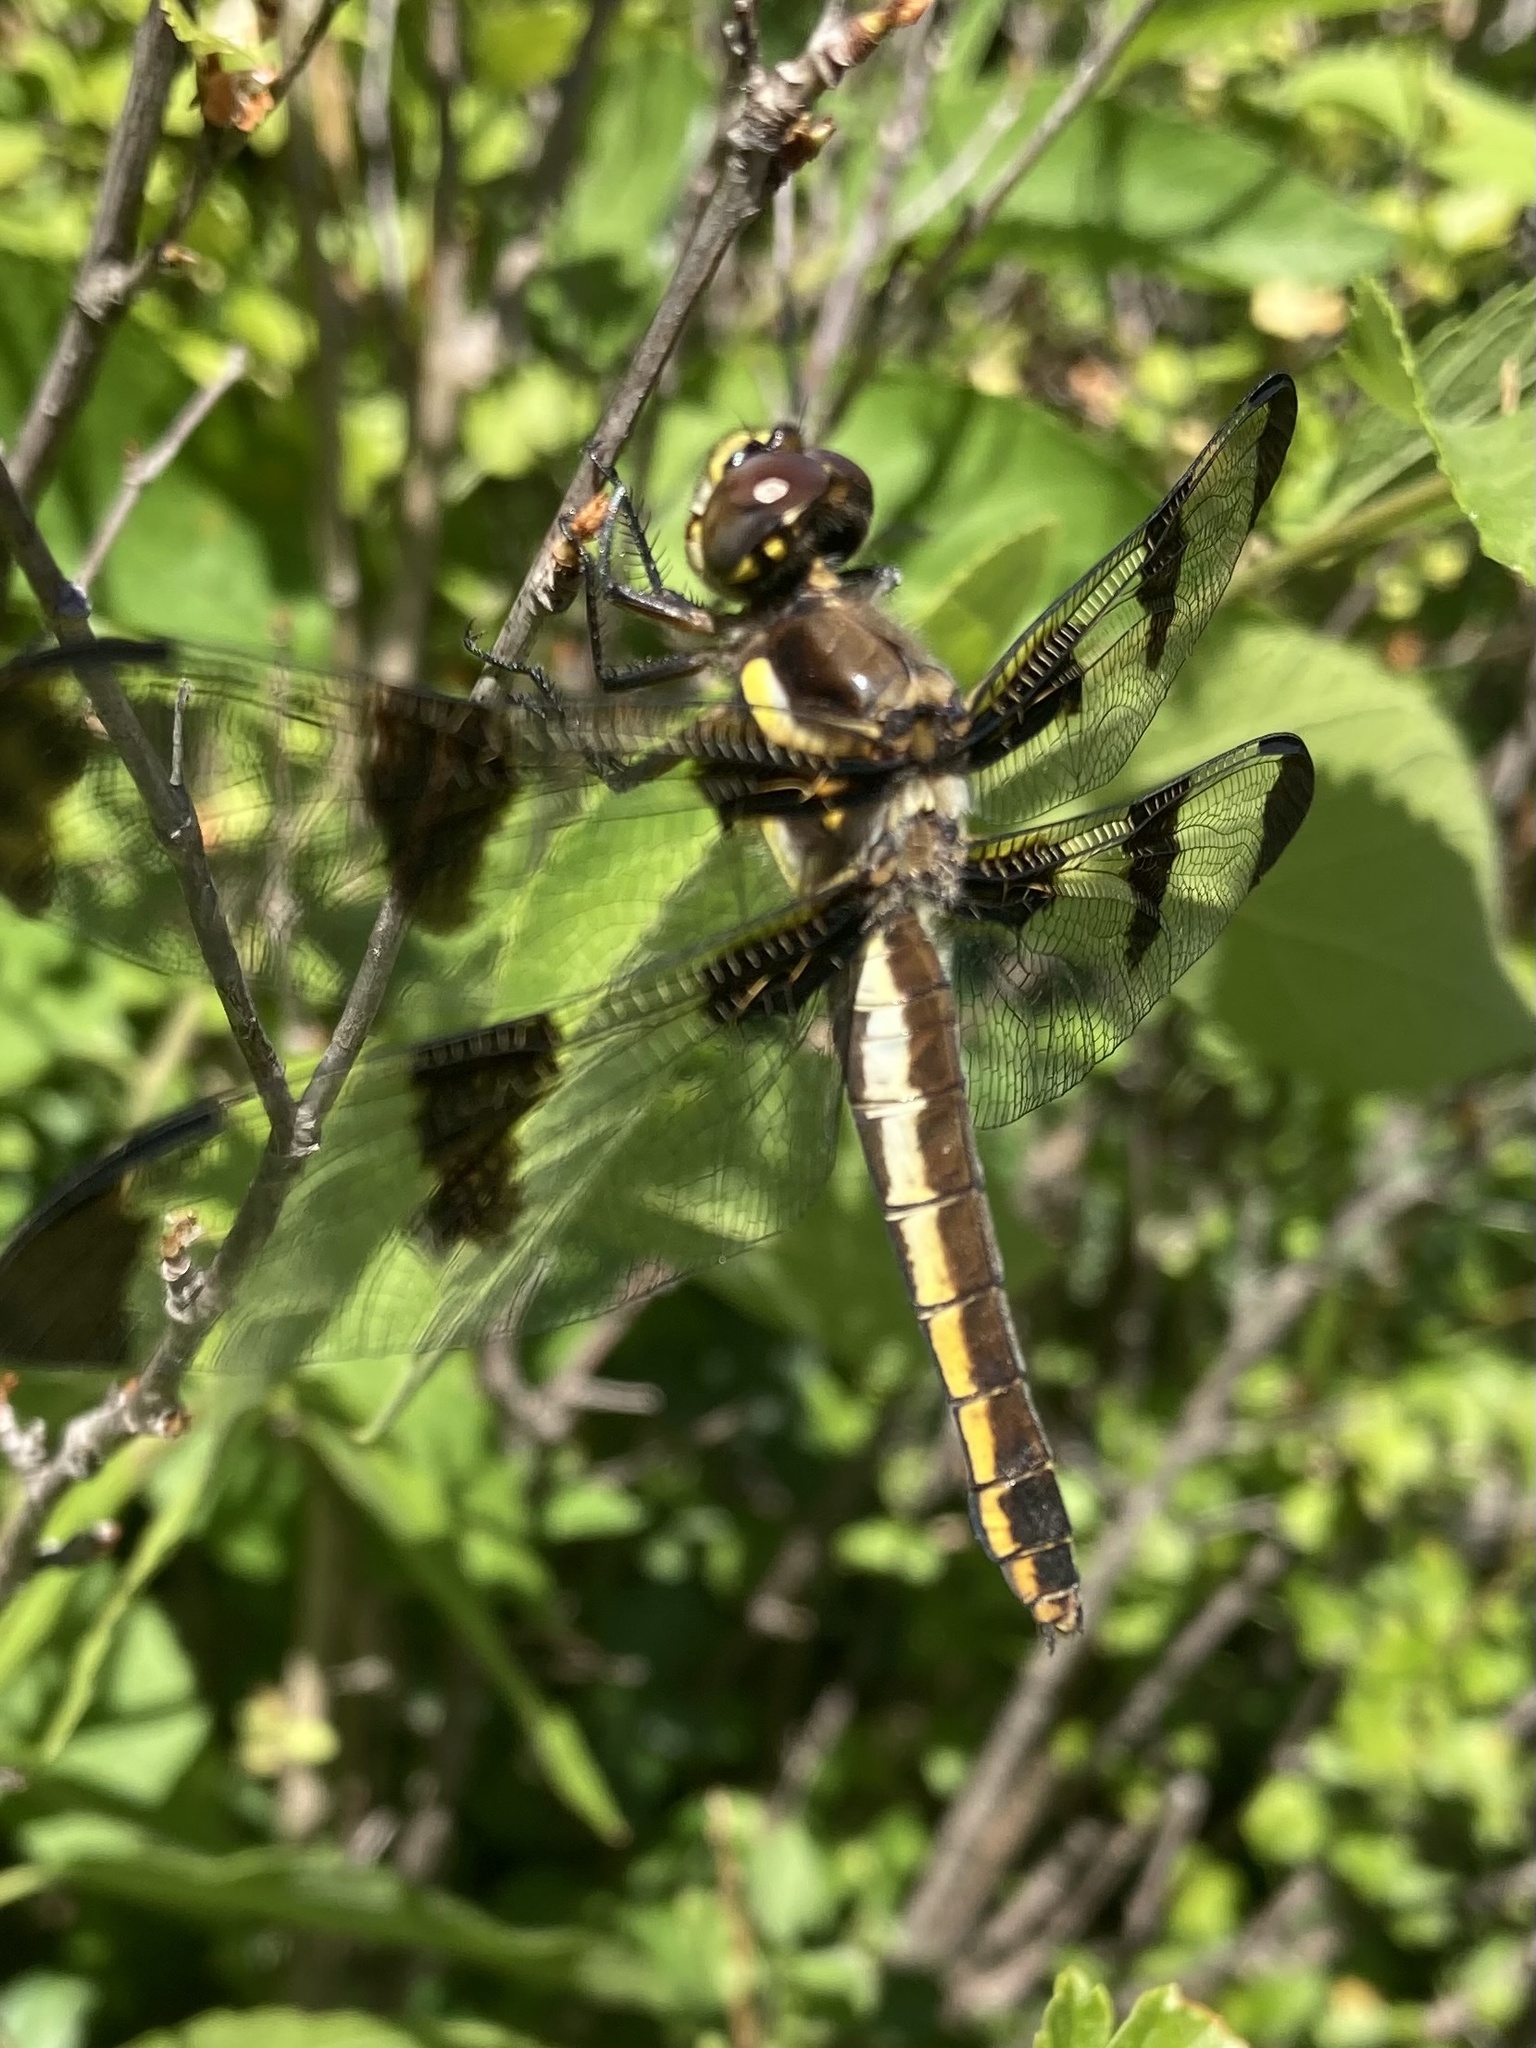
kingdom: Animalia
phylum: Arthropoda
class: Insecta
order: Odonata
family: Libellulidae
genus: Libellula
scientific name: Libellula pulchella
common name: Twelve-spotted skimmer
